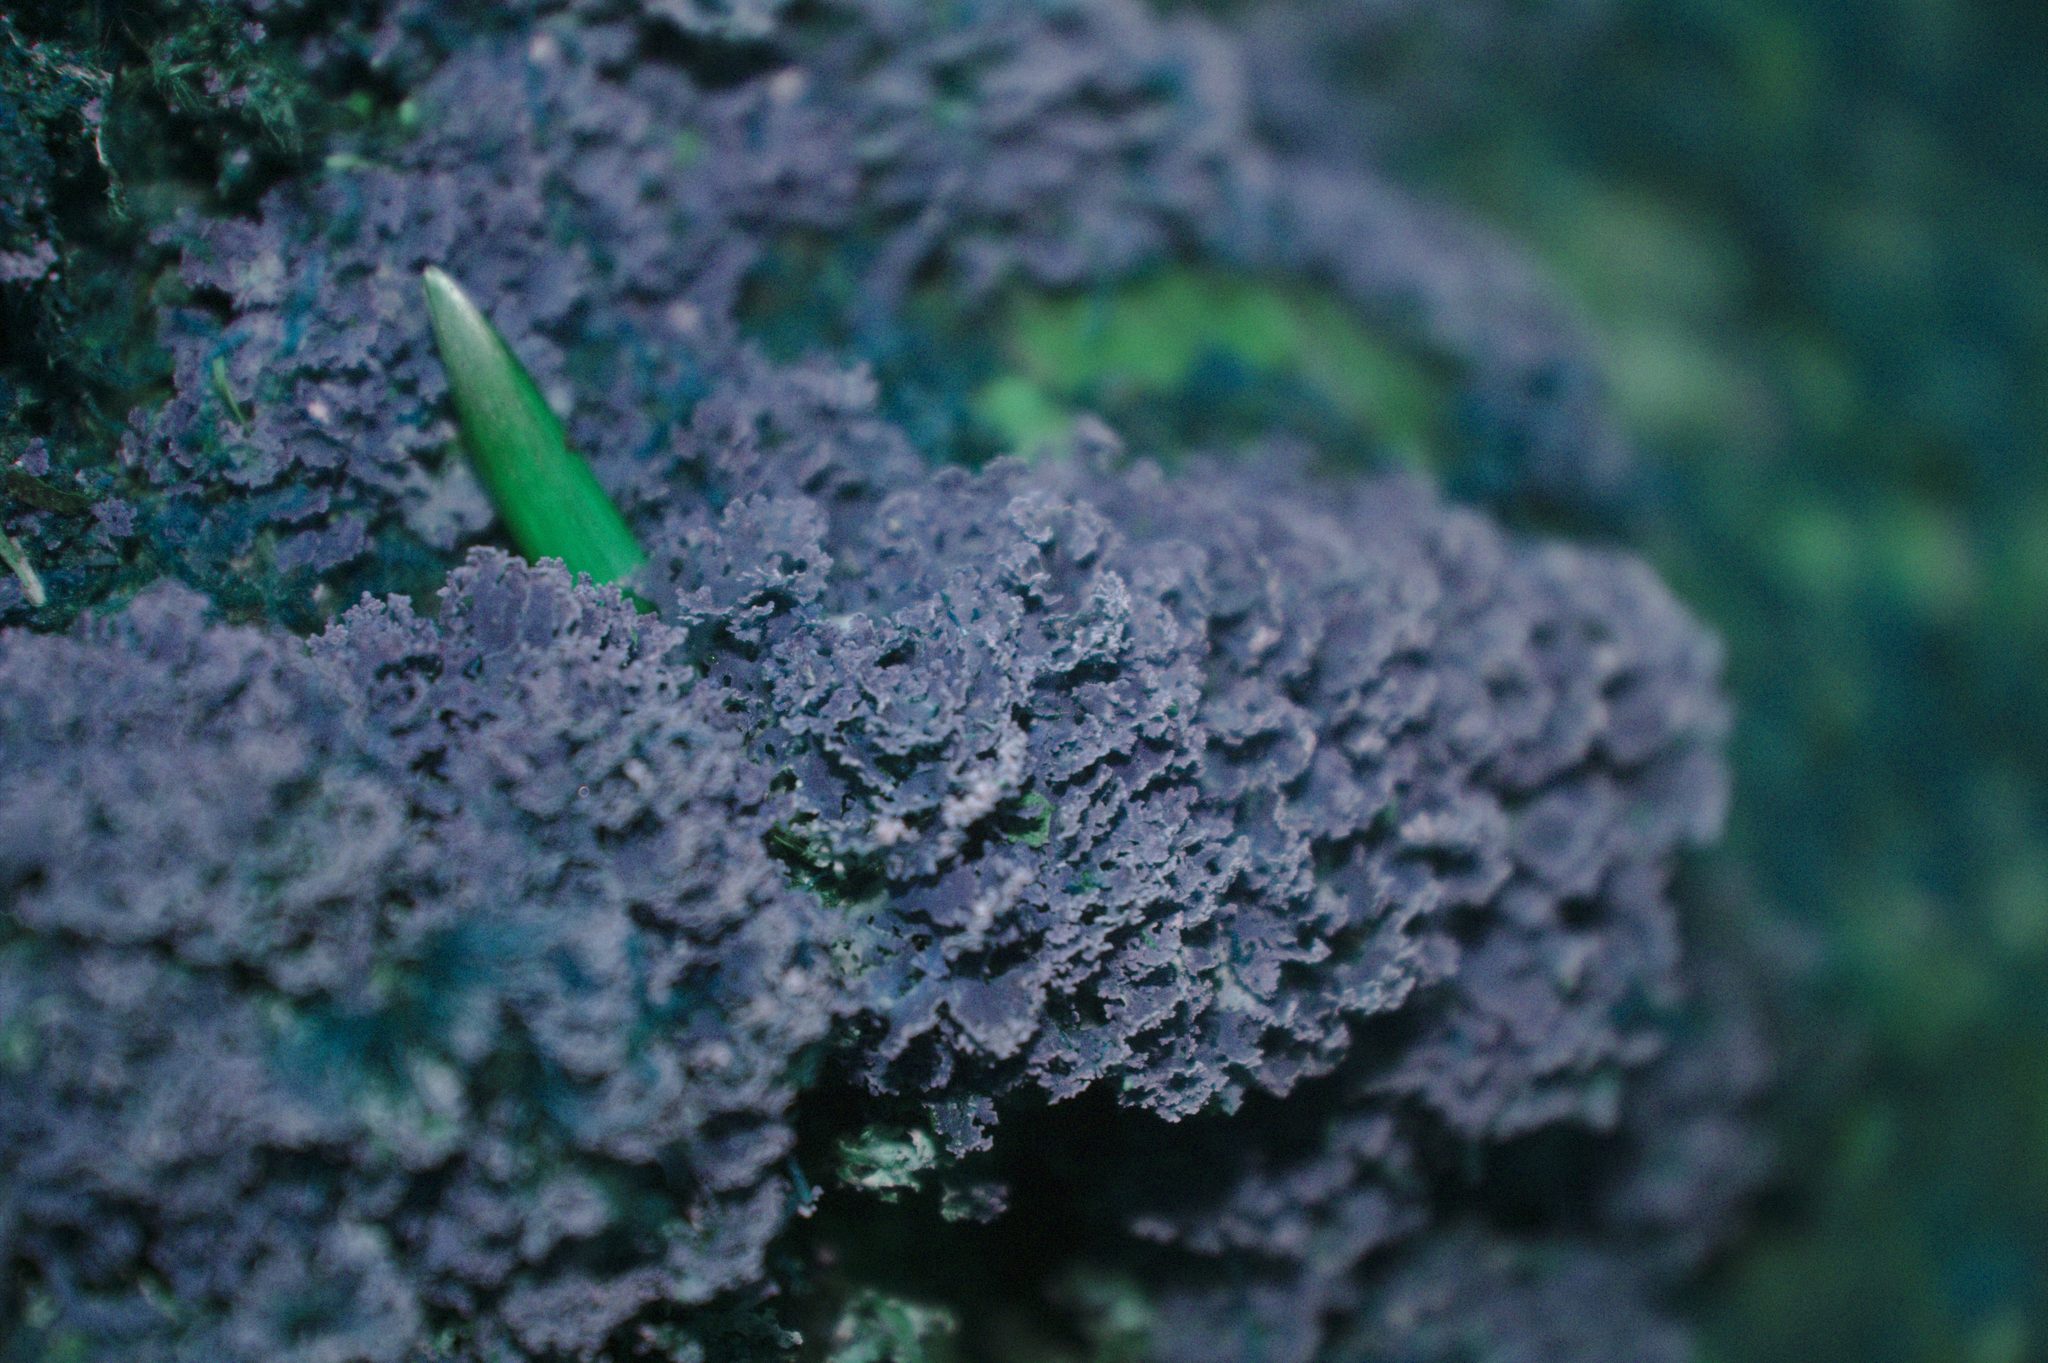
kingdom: Fungi
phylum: Ascomycota
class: Lecanoromycetes
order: Lecanorales
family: Cladoniaceae
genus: Cladonia
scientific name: Cladonia caespiticia
